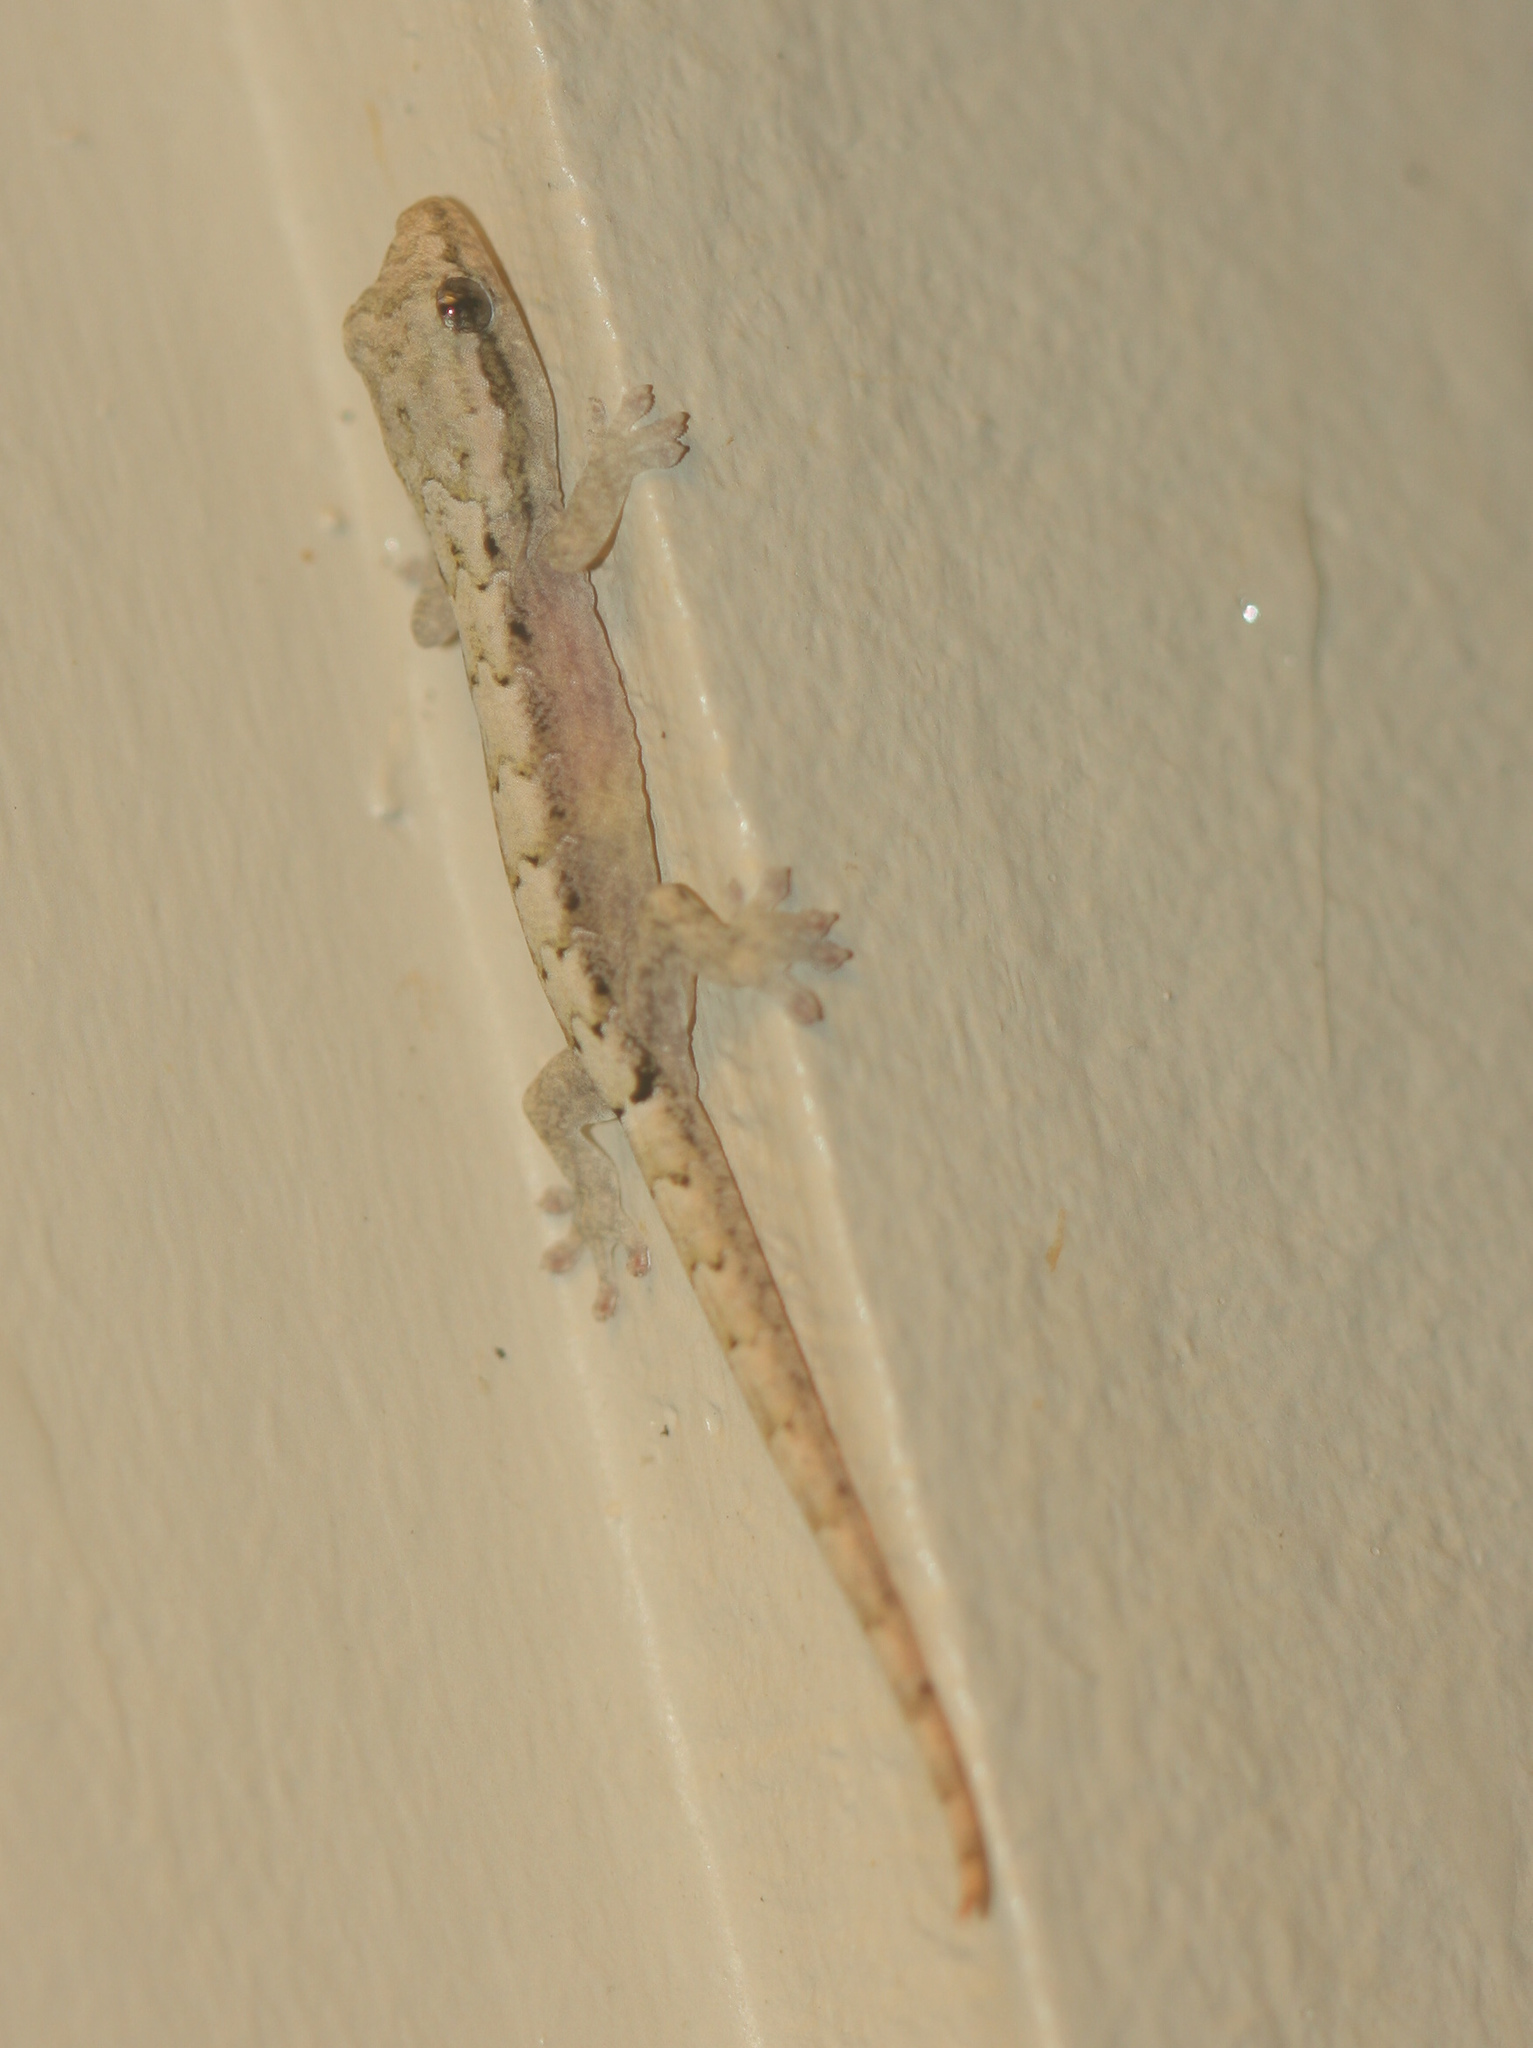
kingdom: Animalia
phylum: Chordata
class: Squamata
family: Gekkonidae
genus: Lepidodactylus
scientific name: Lepidodactylus lugubris
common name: Mourning gecko
